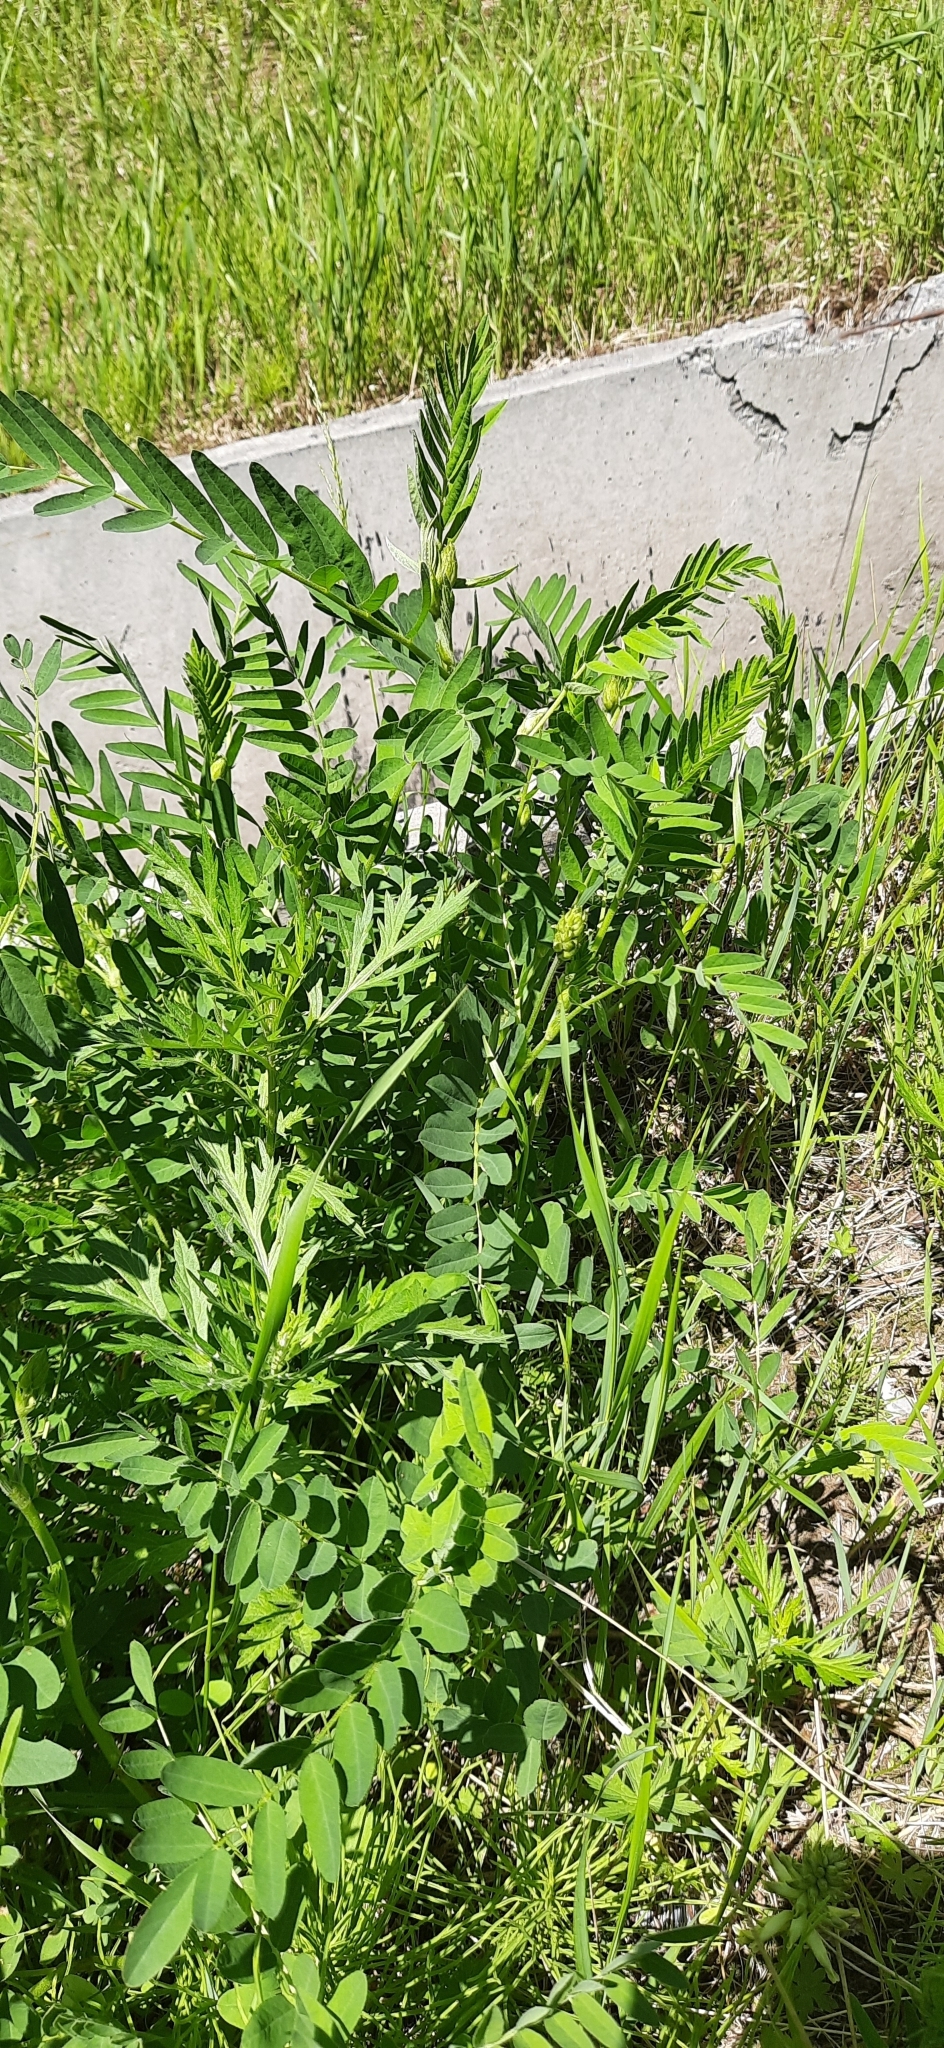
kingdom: Plantae
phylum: Tracheophyta
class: Magnoliopsida
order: Fabales
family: Fabaceae
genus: Astragalus
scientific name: Astragalus uliginosus
